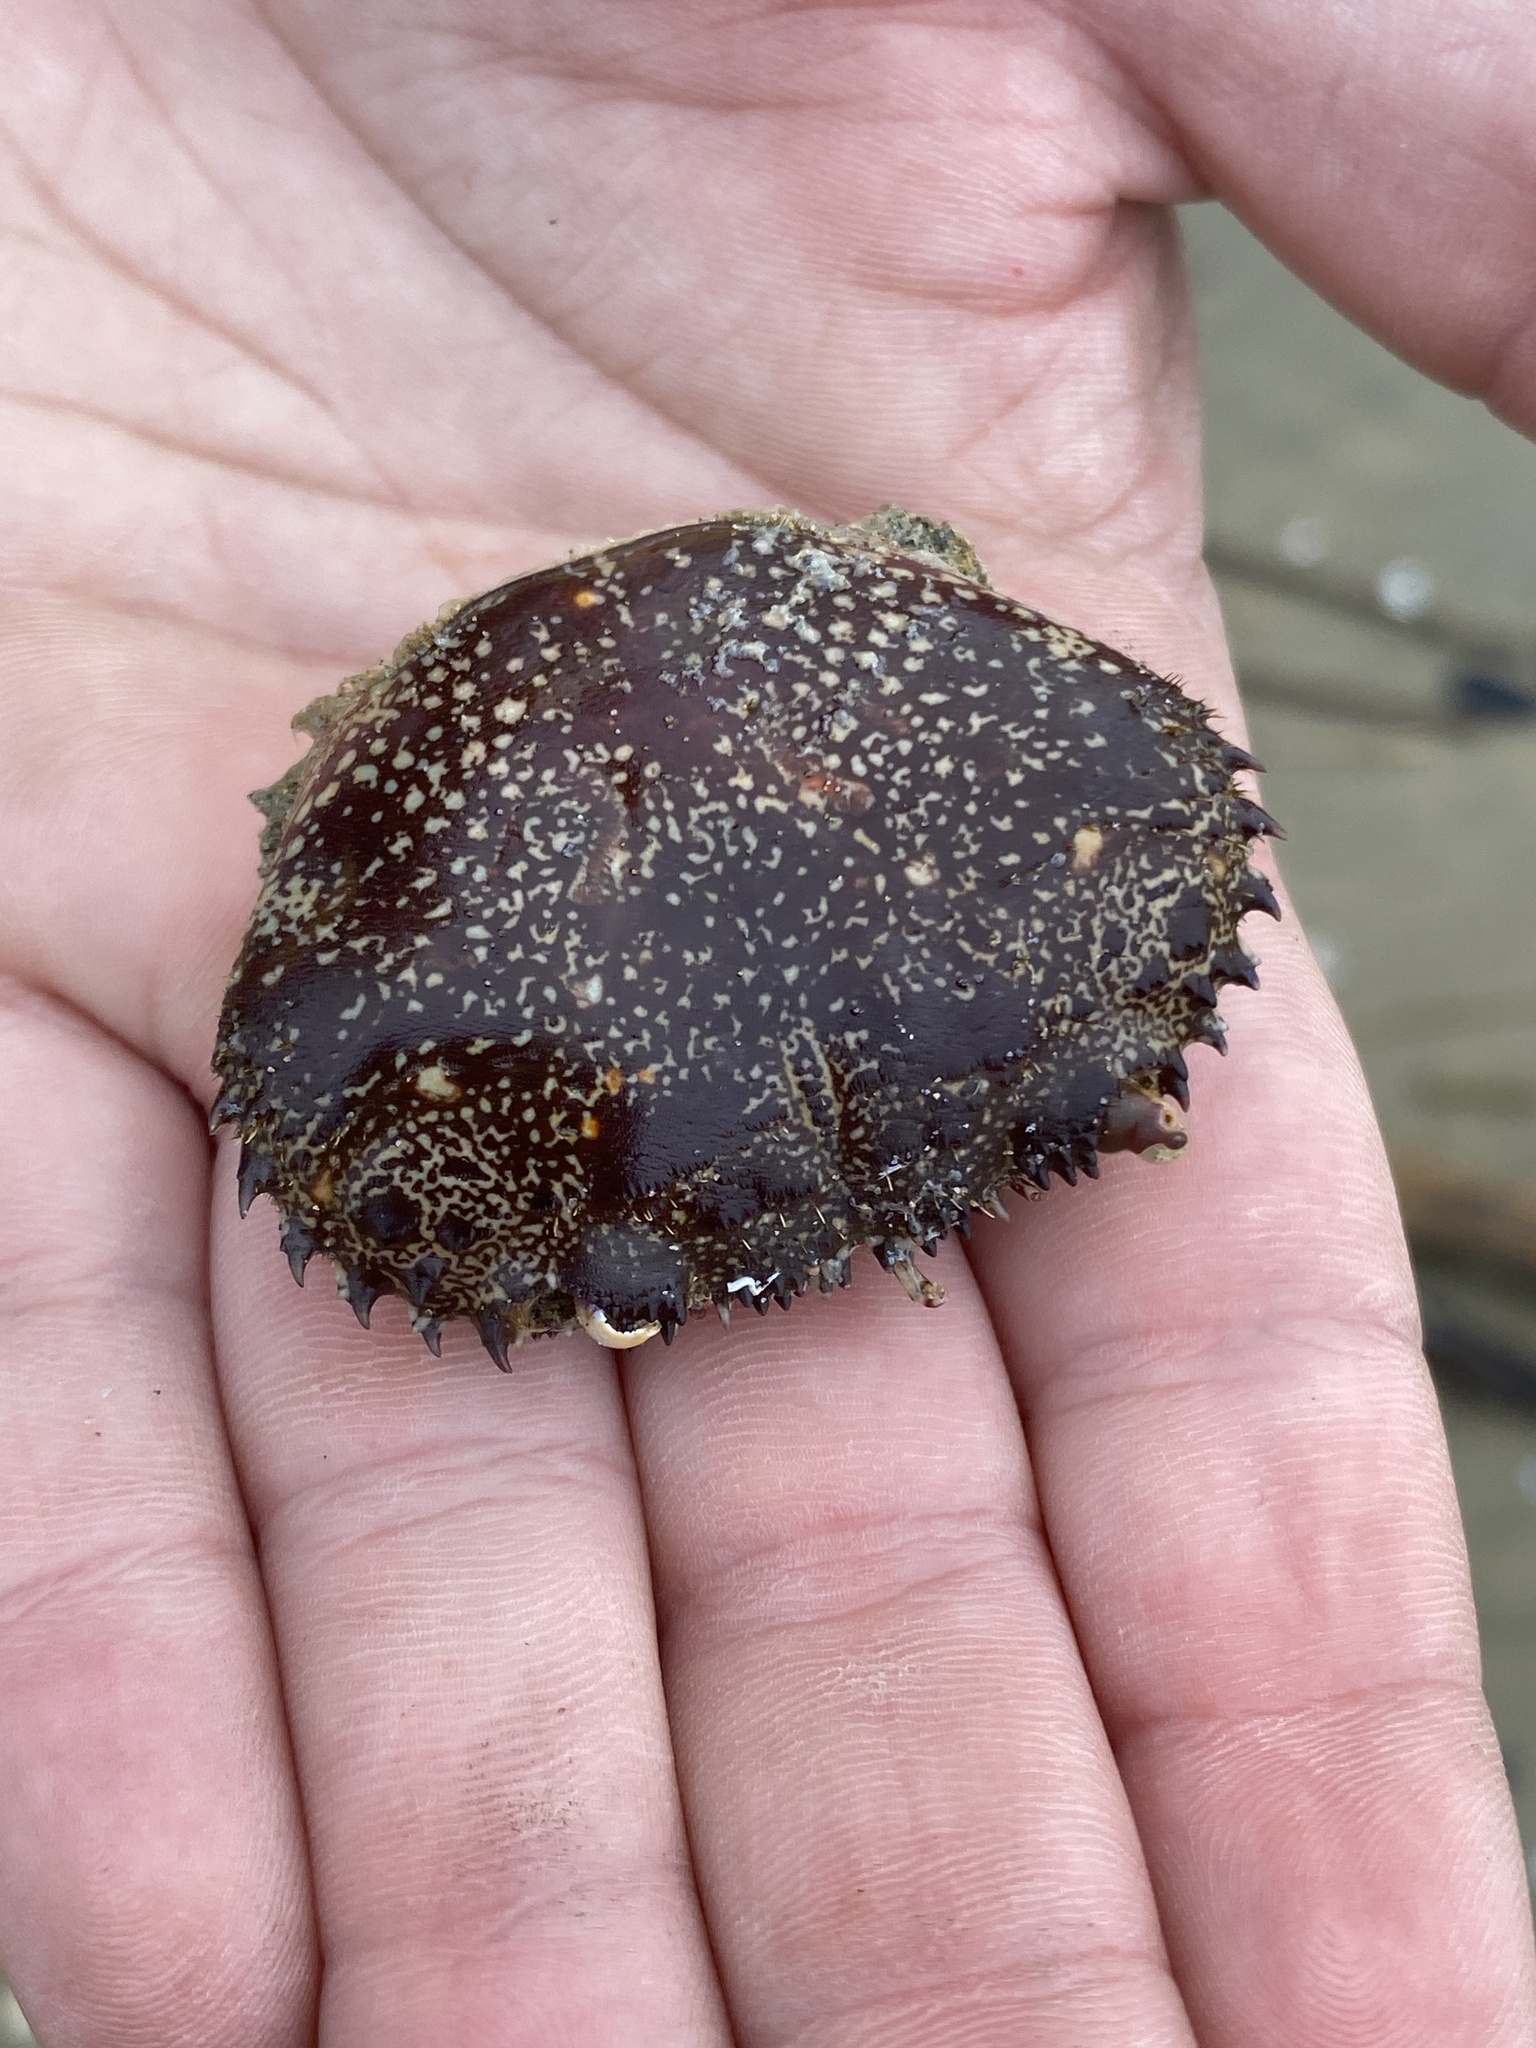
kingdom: Animalia
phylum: Arthropoda
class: Malacostraca
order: Decapoda
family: Eriphiidae
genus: Eriphia
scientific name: Eriphia verrucosa
